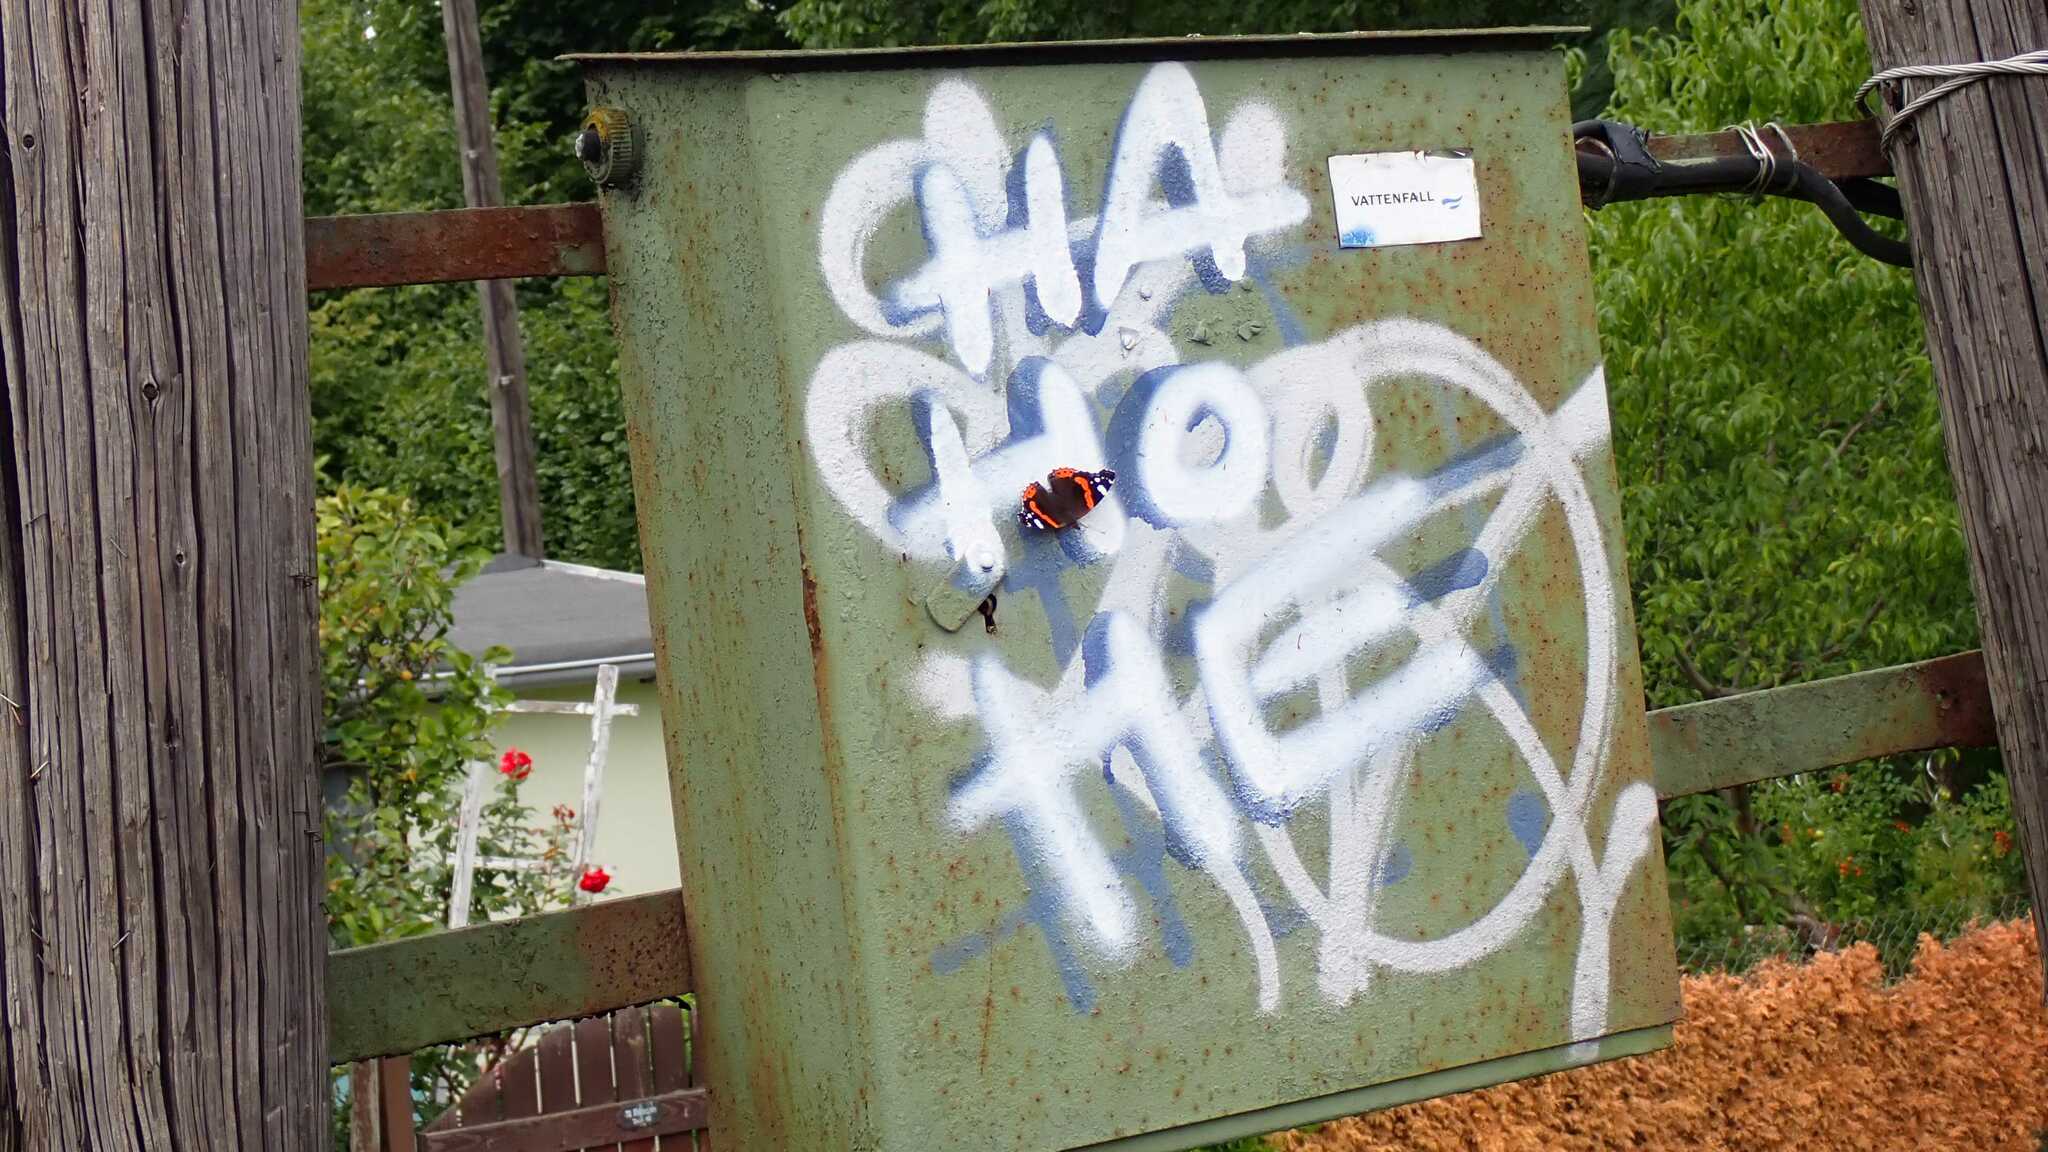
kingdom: Animalia
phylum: Arthropoda
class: Insecta
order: Lepidoptera
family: Nymphalidae
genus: Vanessa
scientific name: Vanessa atalanta
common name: Red admiral
